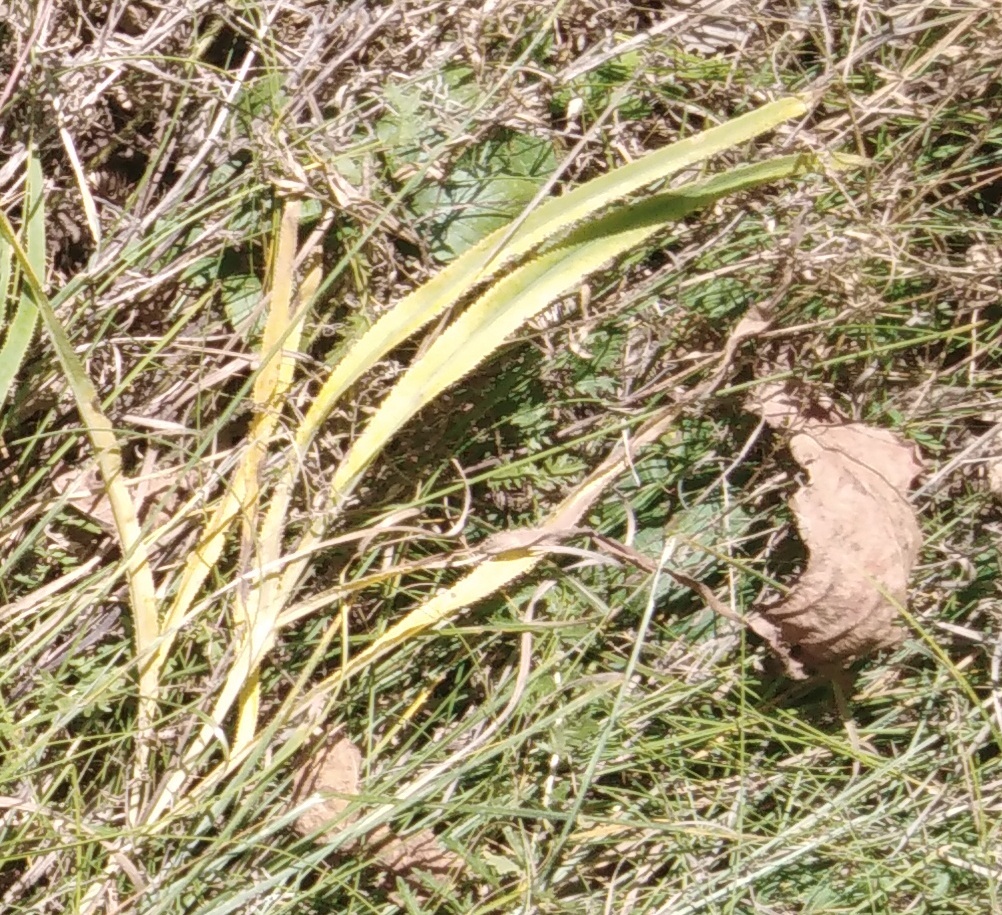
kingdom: Plantae
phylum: Tracheophyta
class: Magnoliopsida
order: Apiales
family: Apiaceae
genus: Falcaria
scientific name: Falcaria vulgaris
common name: Longleaf
